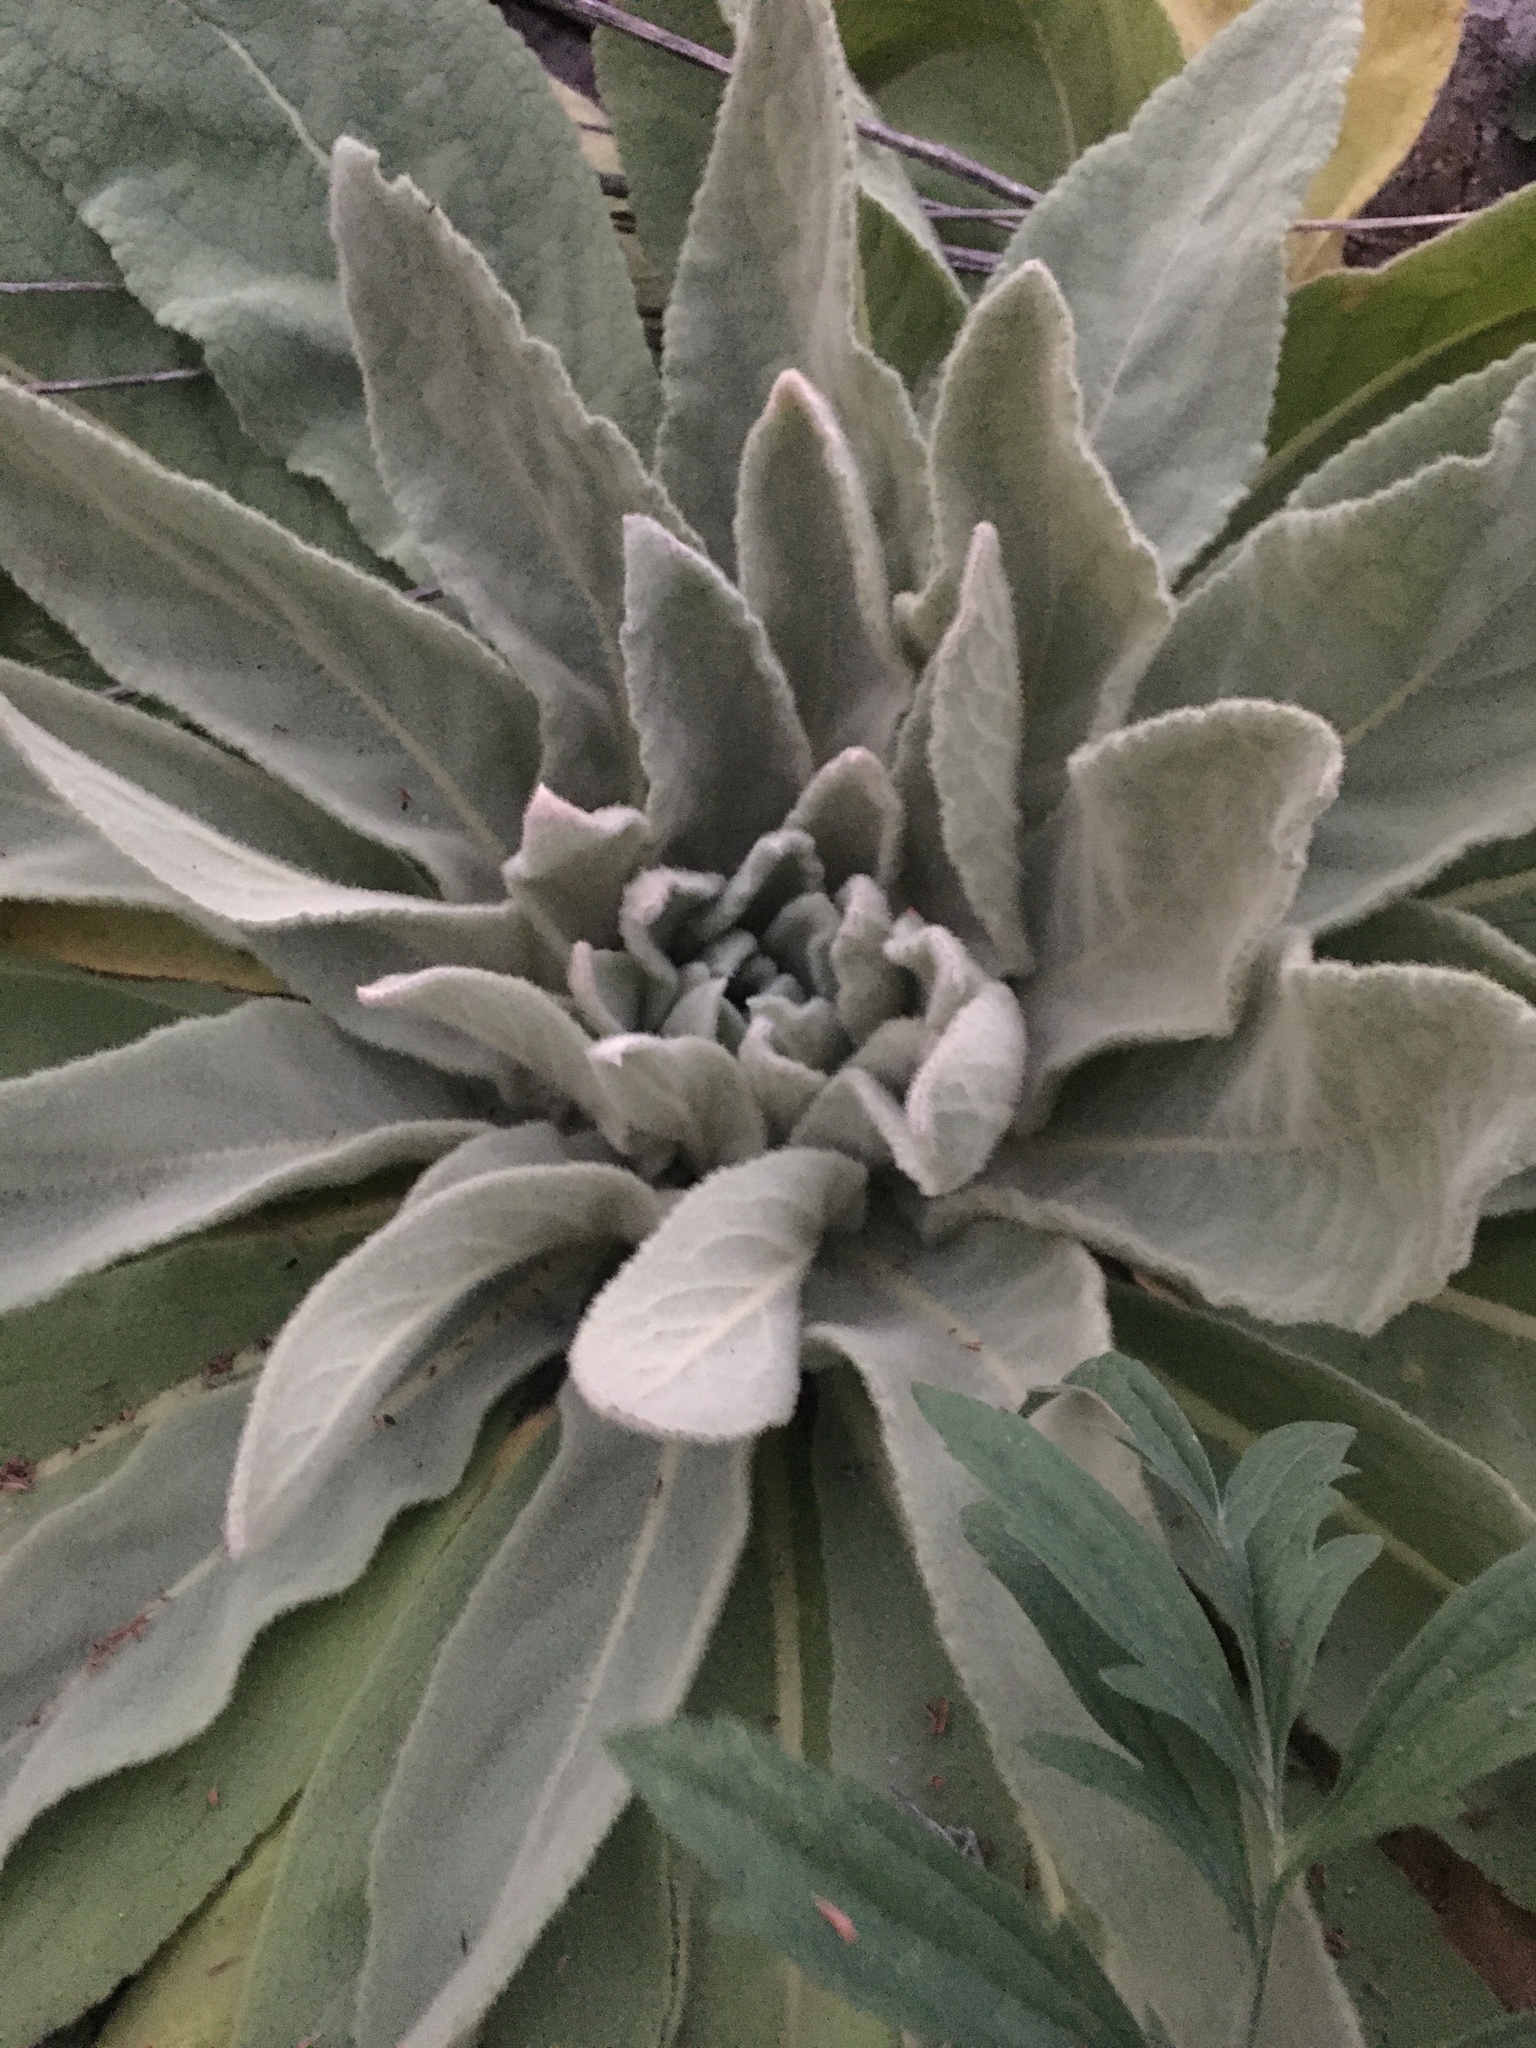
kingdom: Plantae
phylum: Tracheophyta
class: Magnoliopsida
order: Lamiales
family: Scrophulariaceae
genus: Verbascum
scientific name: Verbascum thapsus
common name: Common mullein
